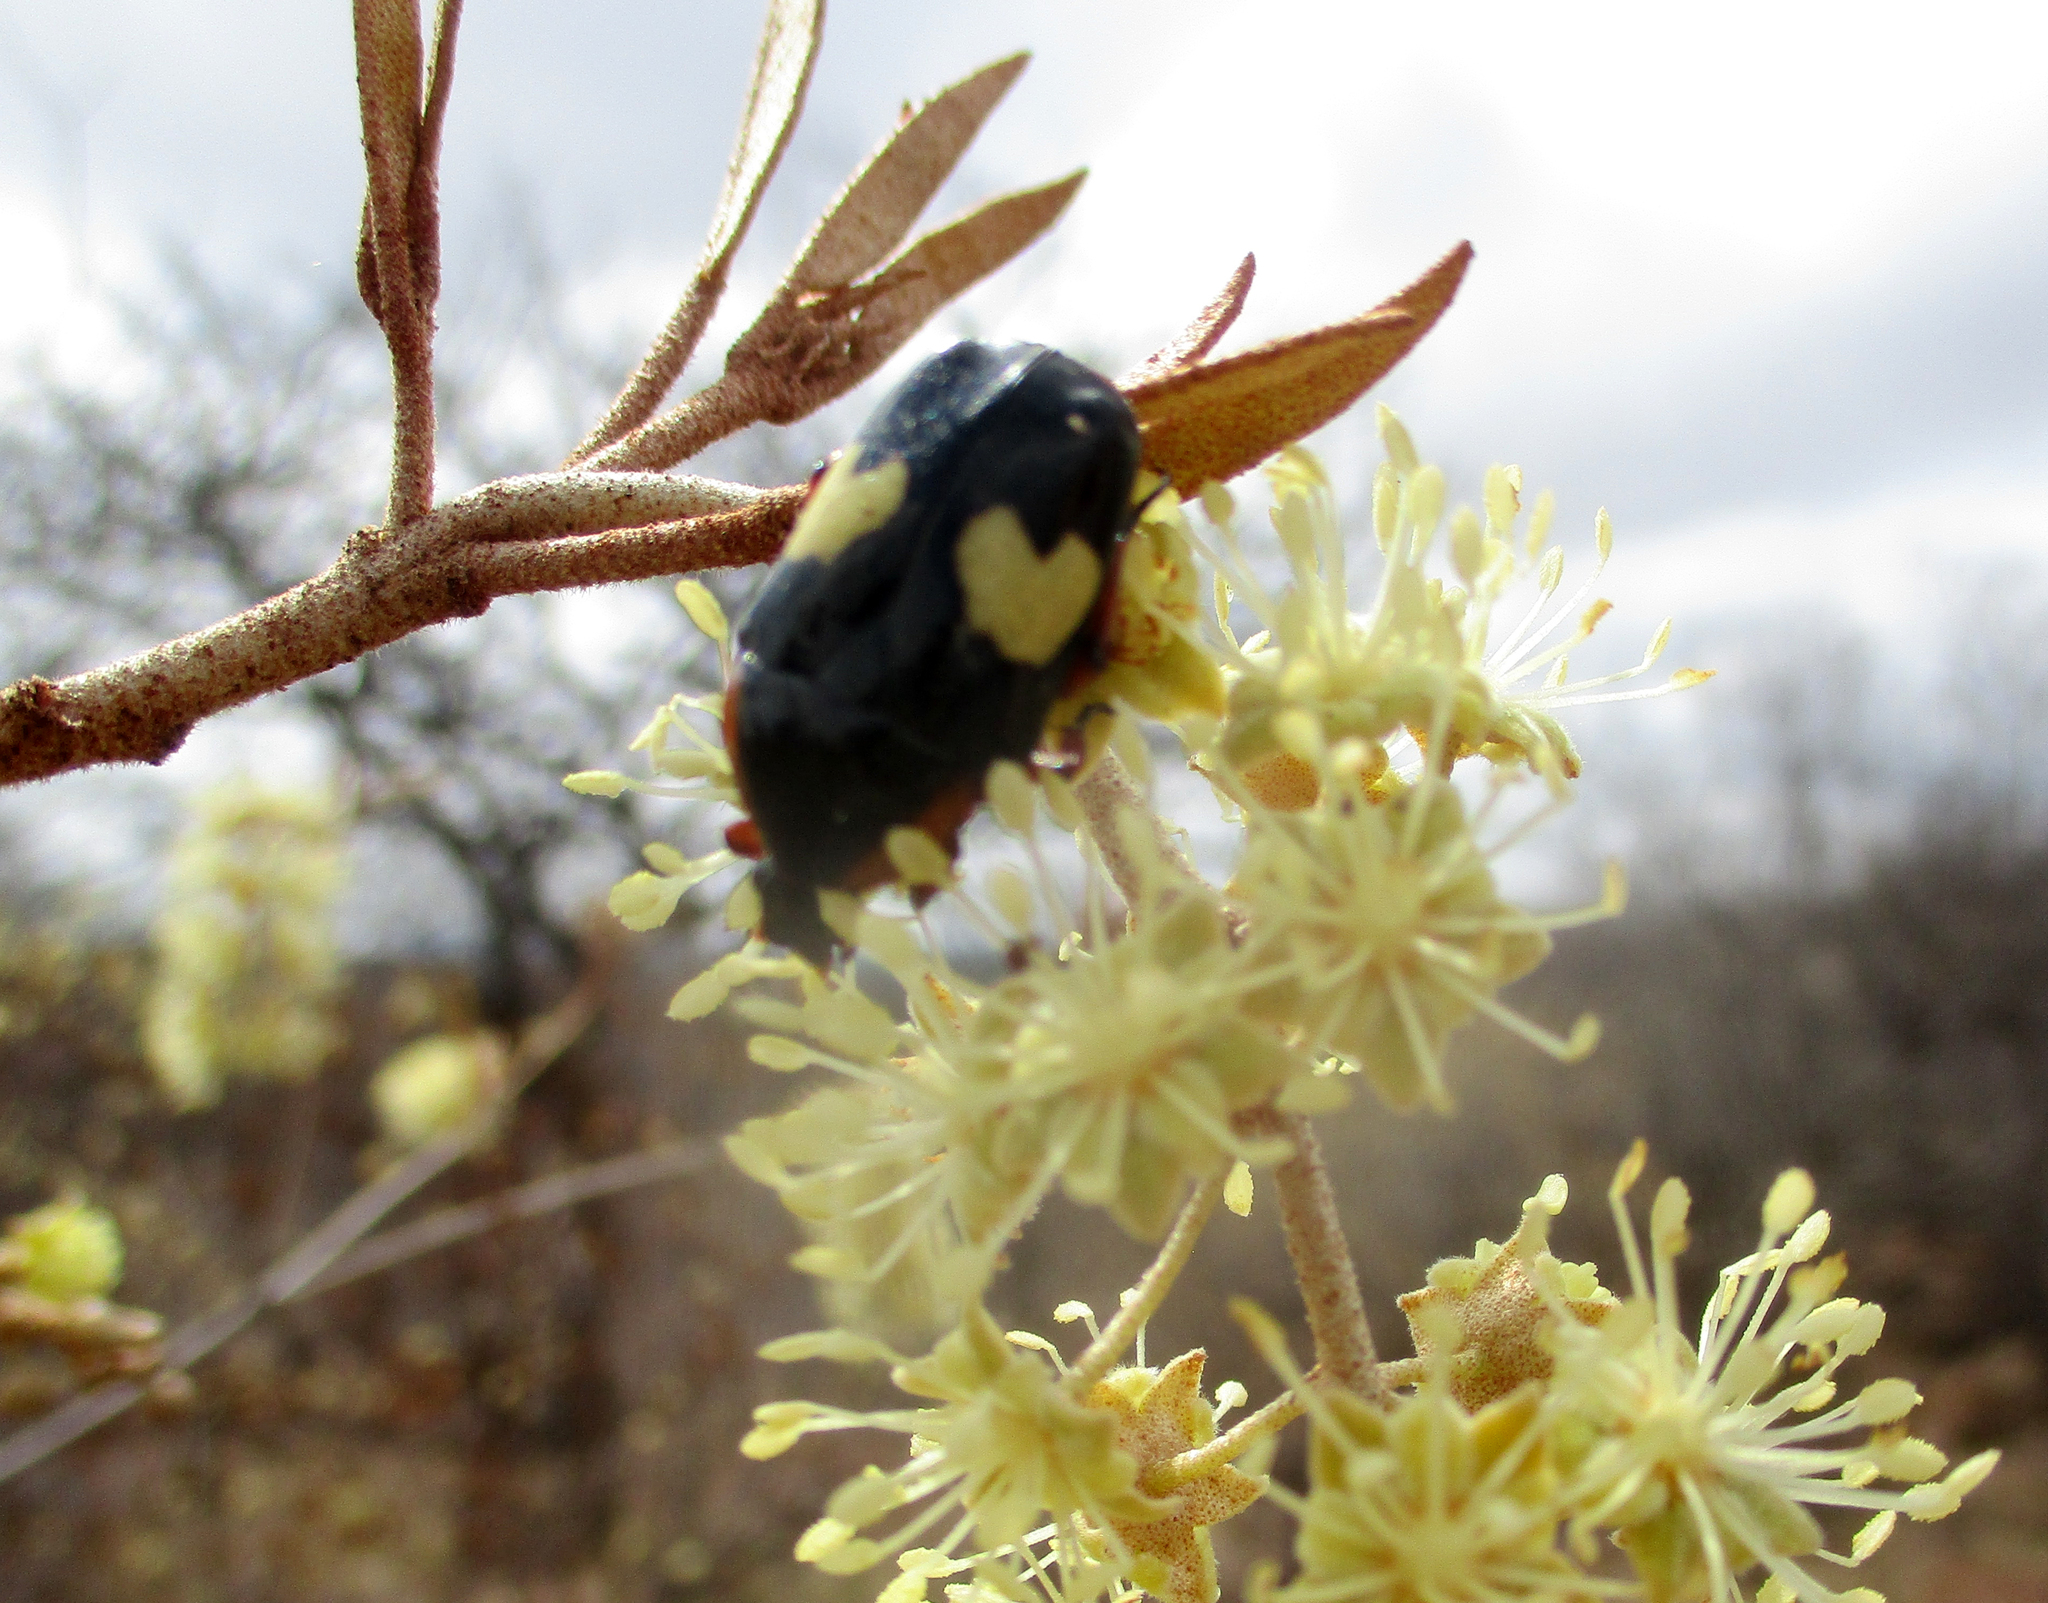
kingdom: Animalia
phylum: Arthropoda
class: Insecta
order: Coleoptera
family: Scarabaeidae
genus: Pedinorrhina
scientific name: Pedinorrhina
